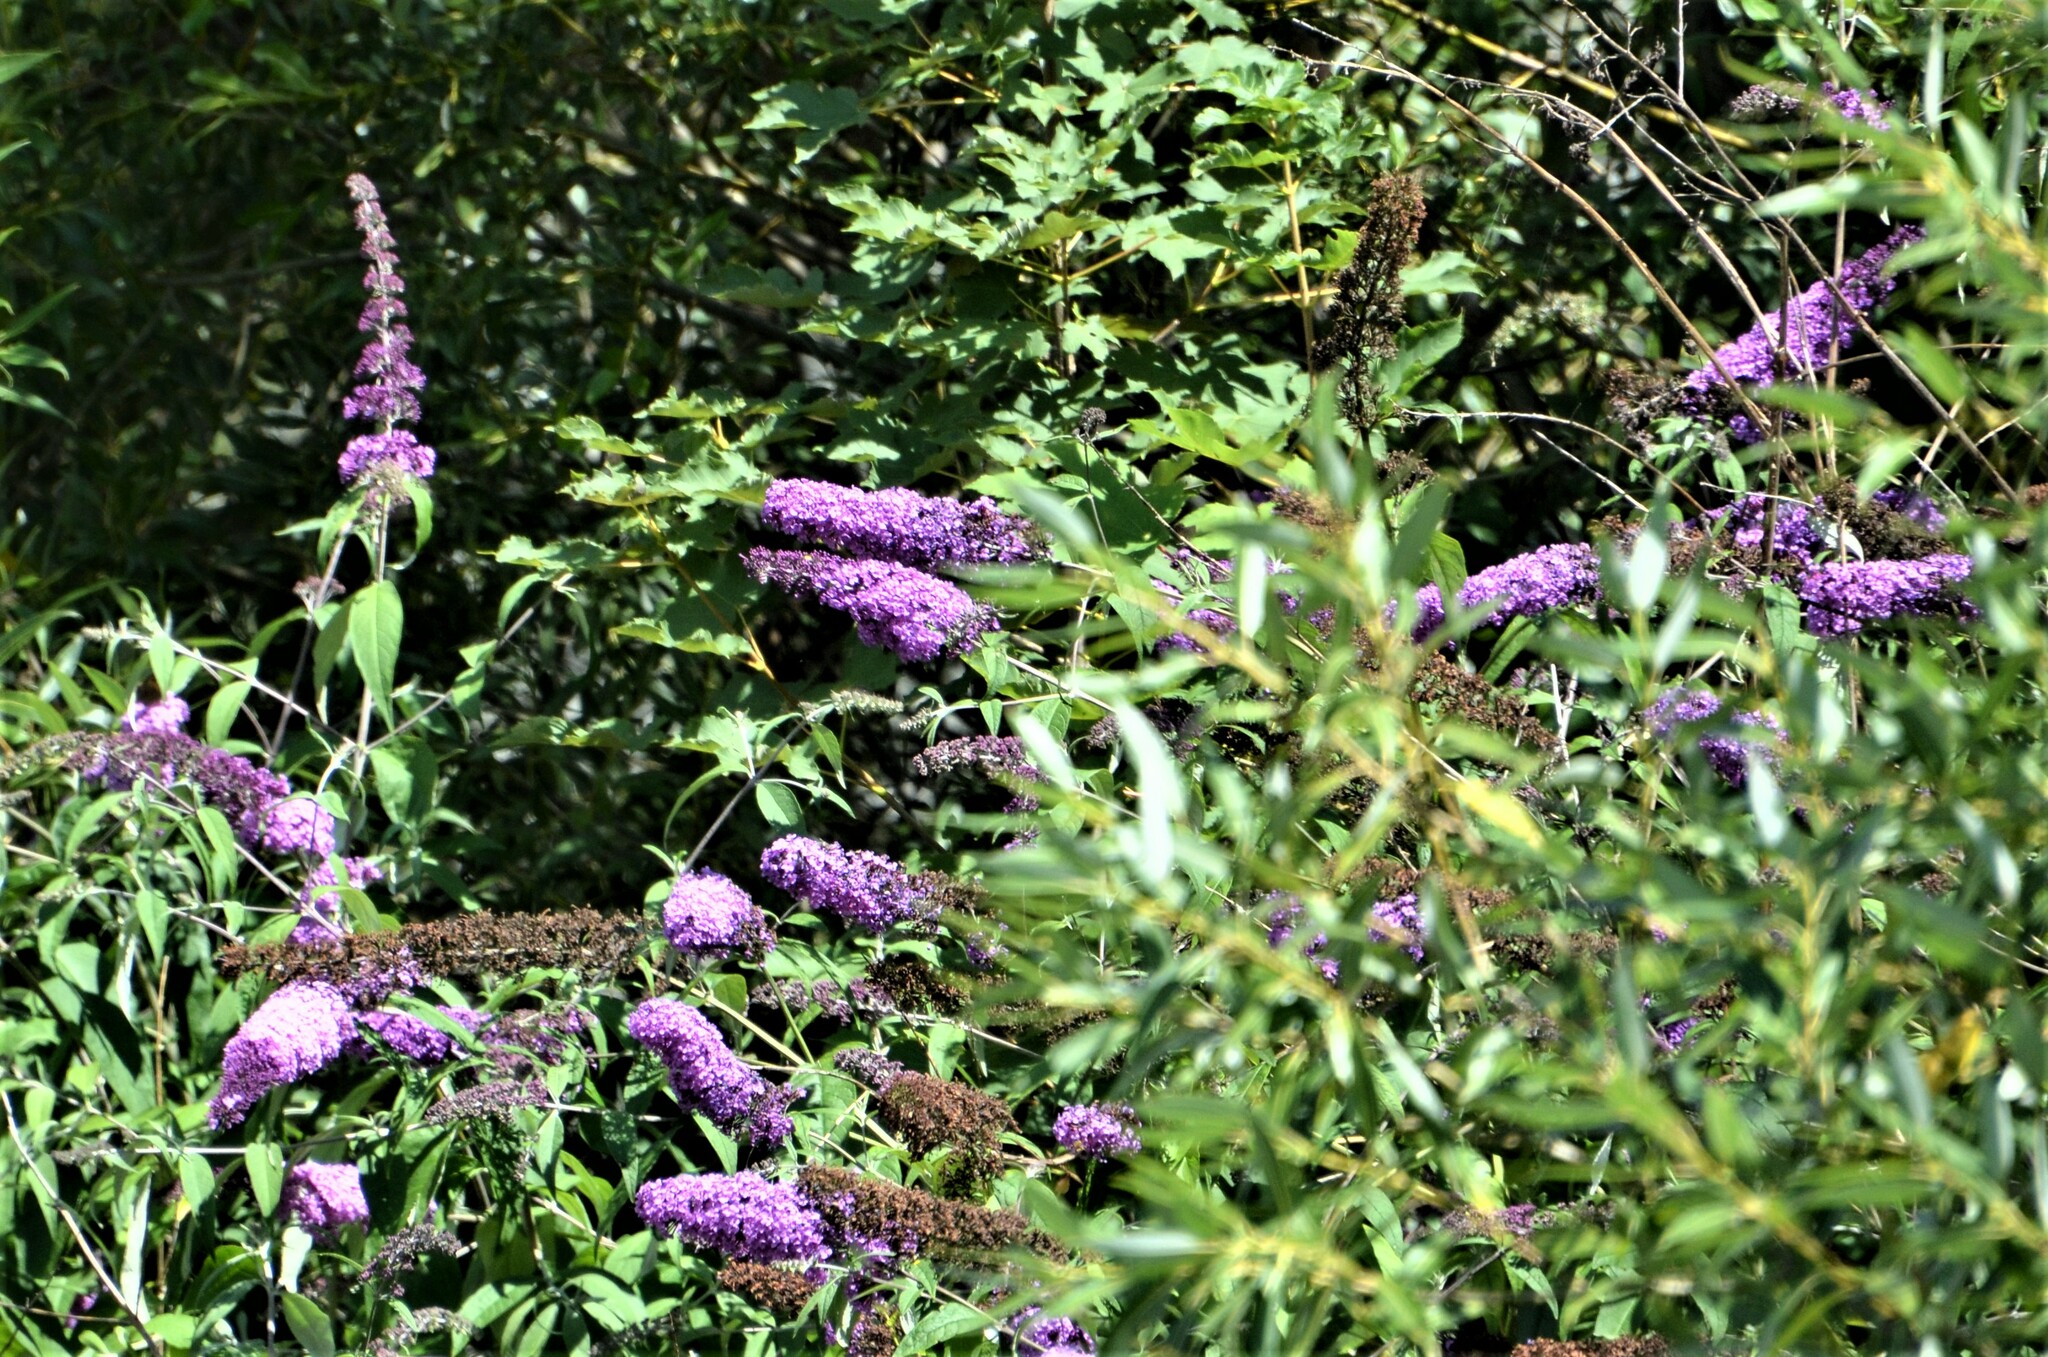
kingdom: Plantae
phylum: Tracheophyta
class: Magnoliopsida
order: Lamiales
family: Scrophulariaceae
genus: Buddleja
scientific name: Buddleja davidii
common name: Butterfly-bush
